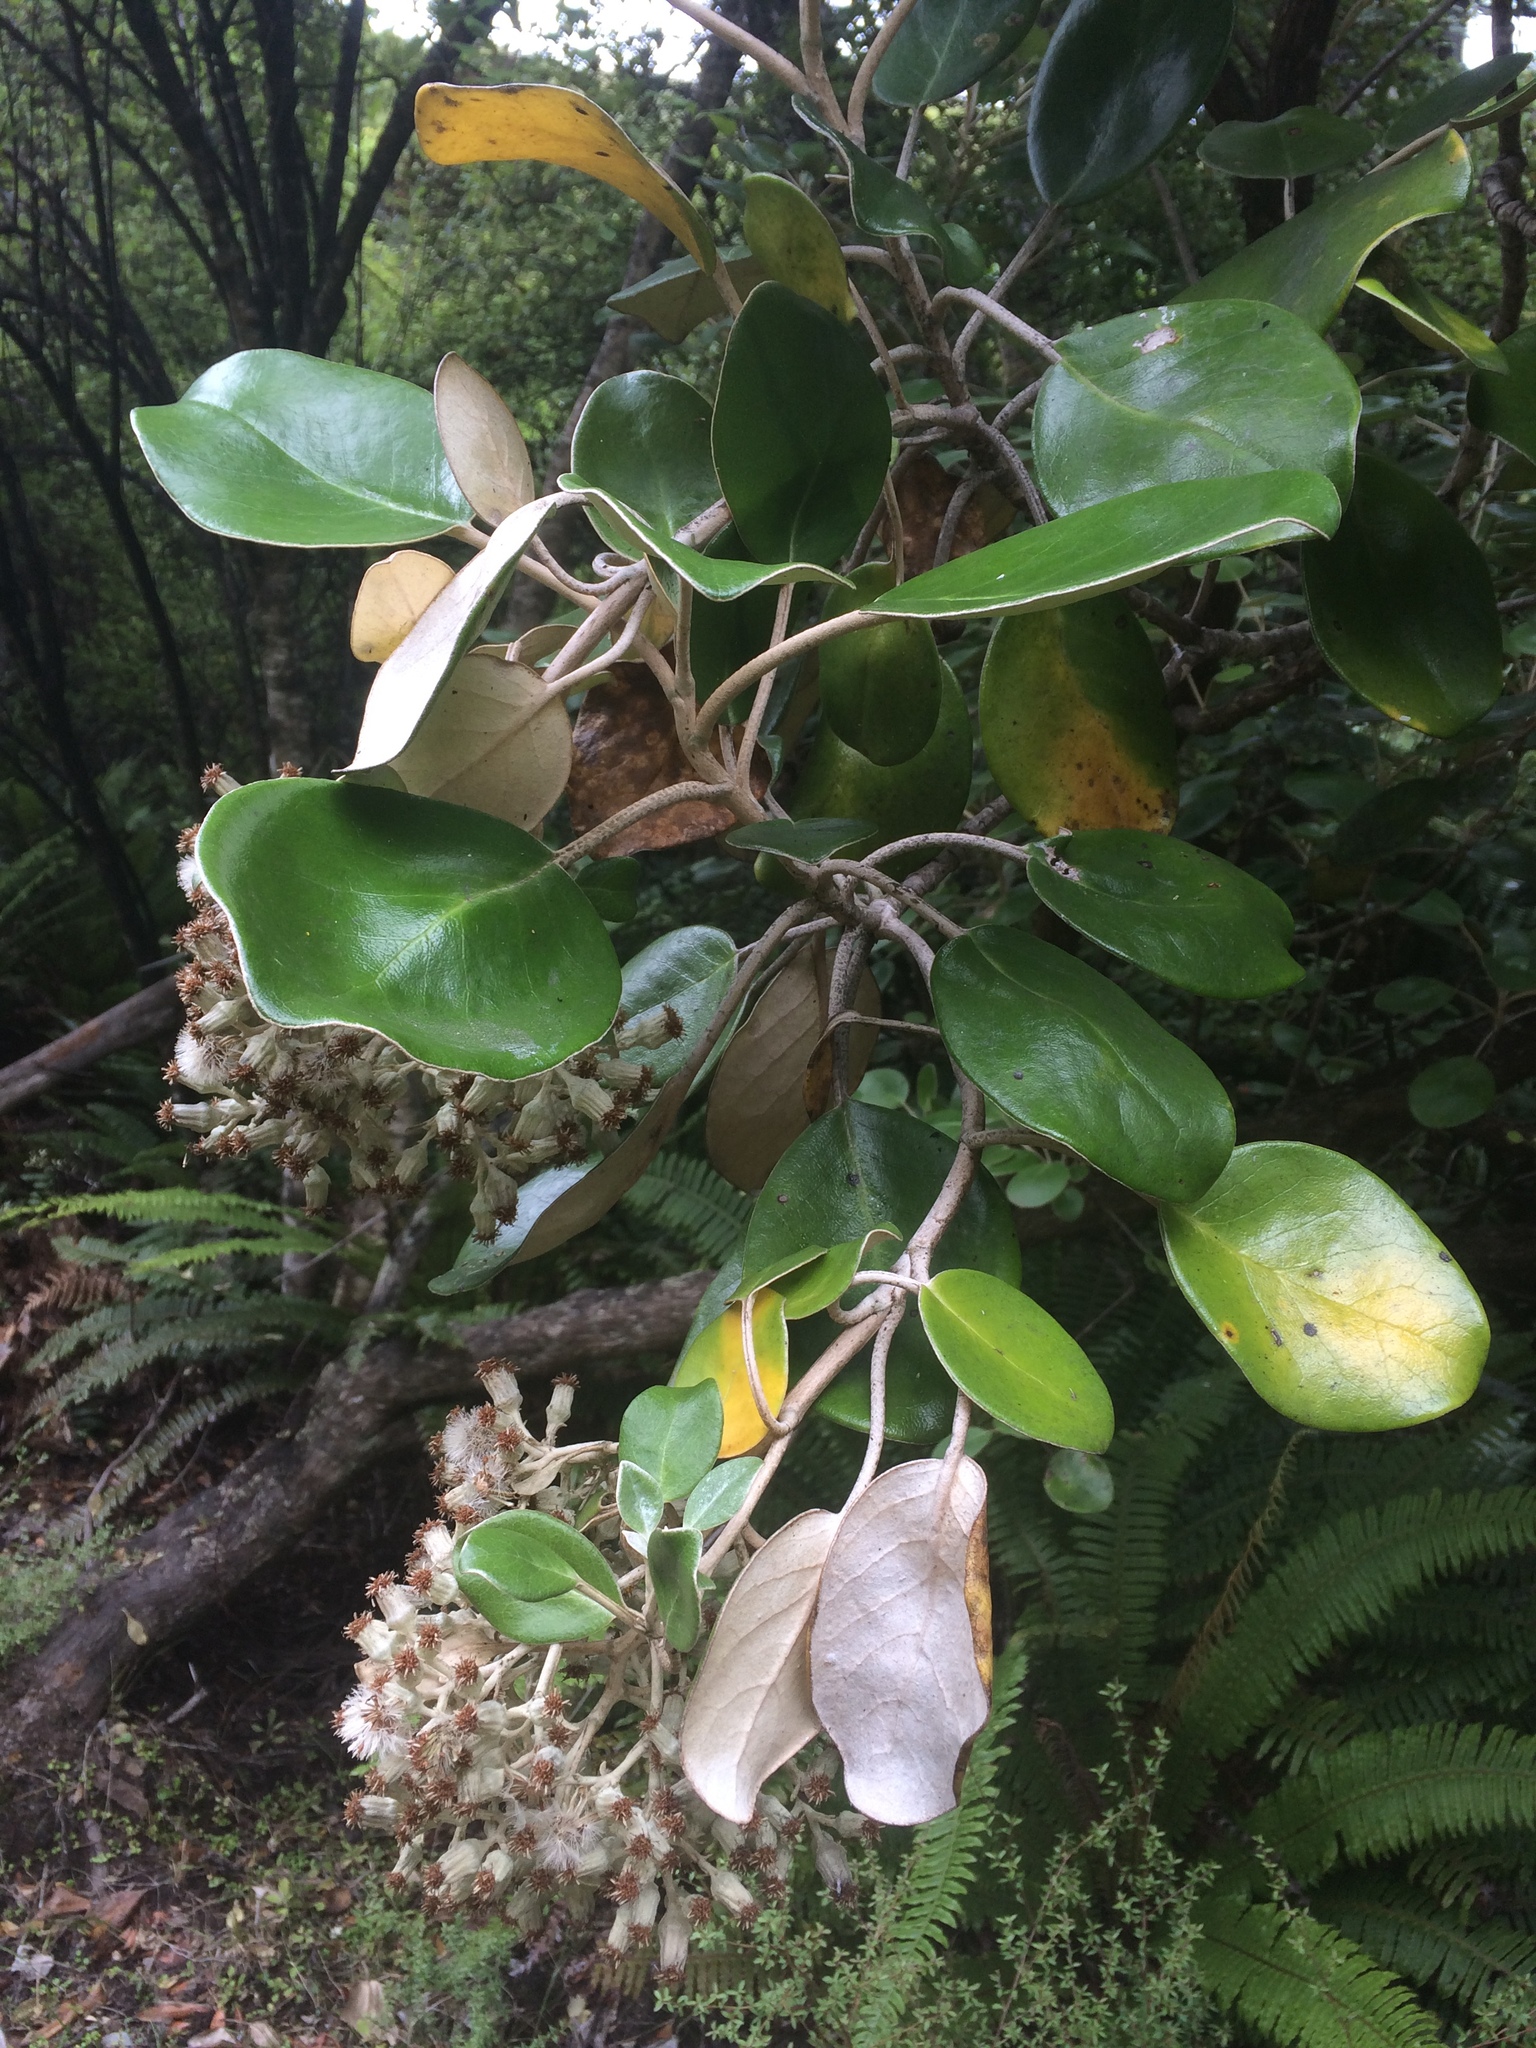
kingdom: Plantae
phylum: Tracheophyta
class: Magnoliopsida
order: Asterales
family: Asteraceae
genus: Brachyglottis
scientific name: Brachyglottis rotundifolia
